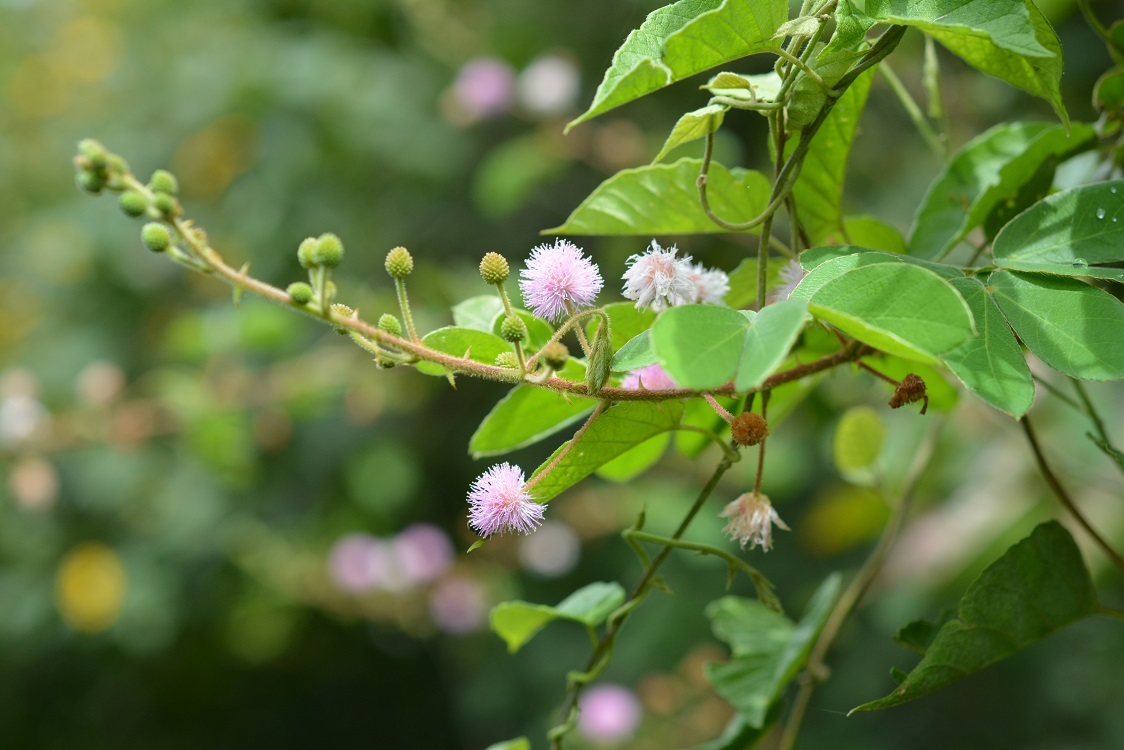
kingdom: Plantae
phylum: Tracheophyta
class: Magnoliopsida
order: Fabales
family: Fabaceae
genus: Mimosa
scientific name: Mimosa albida
